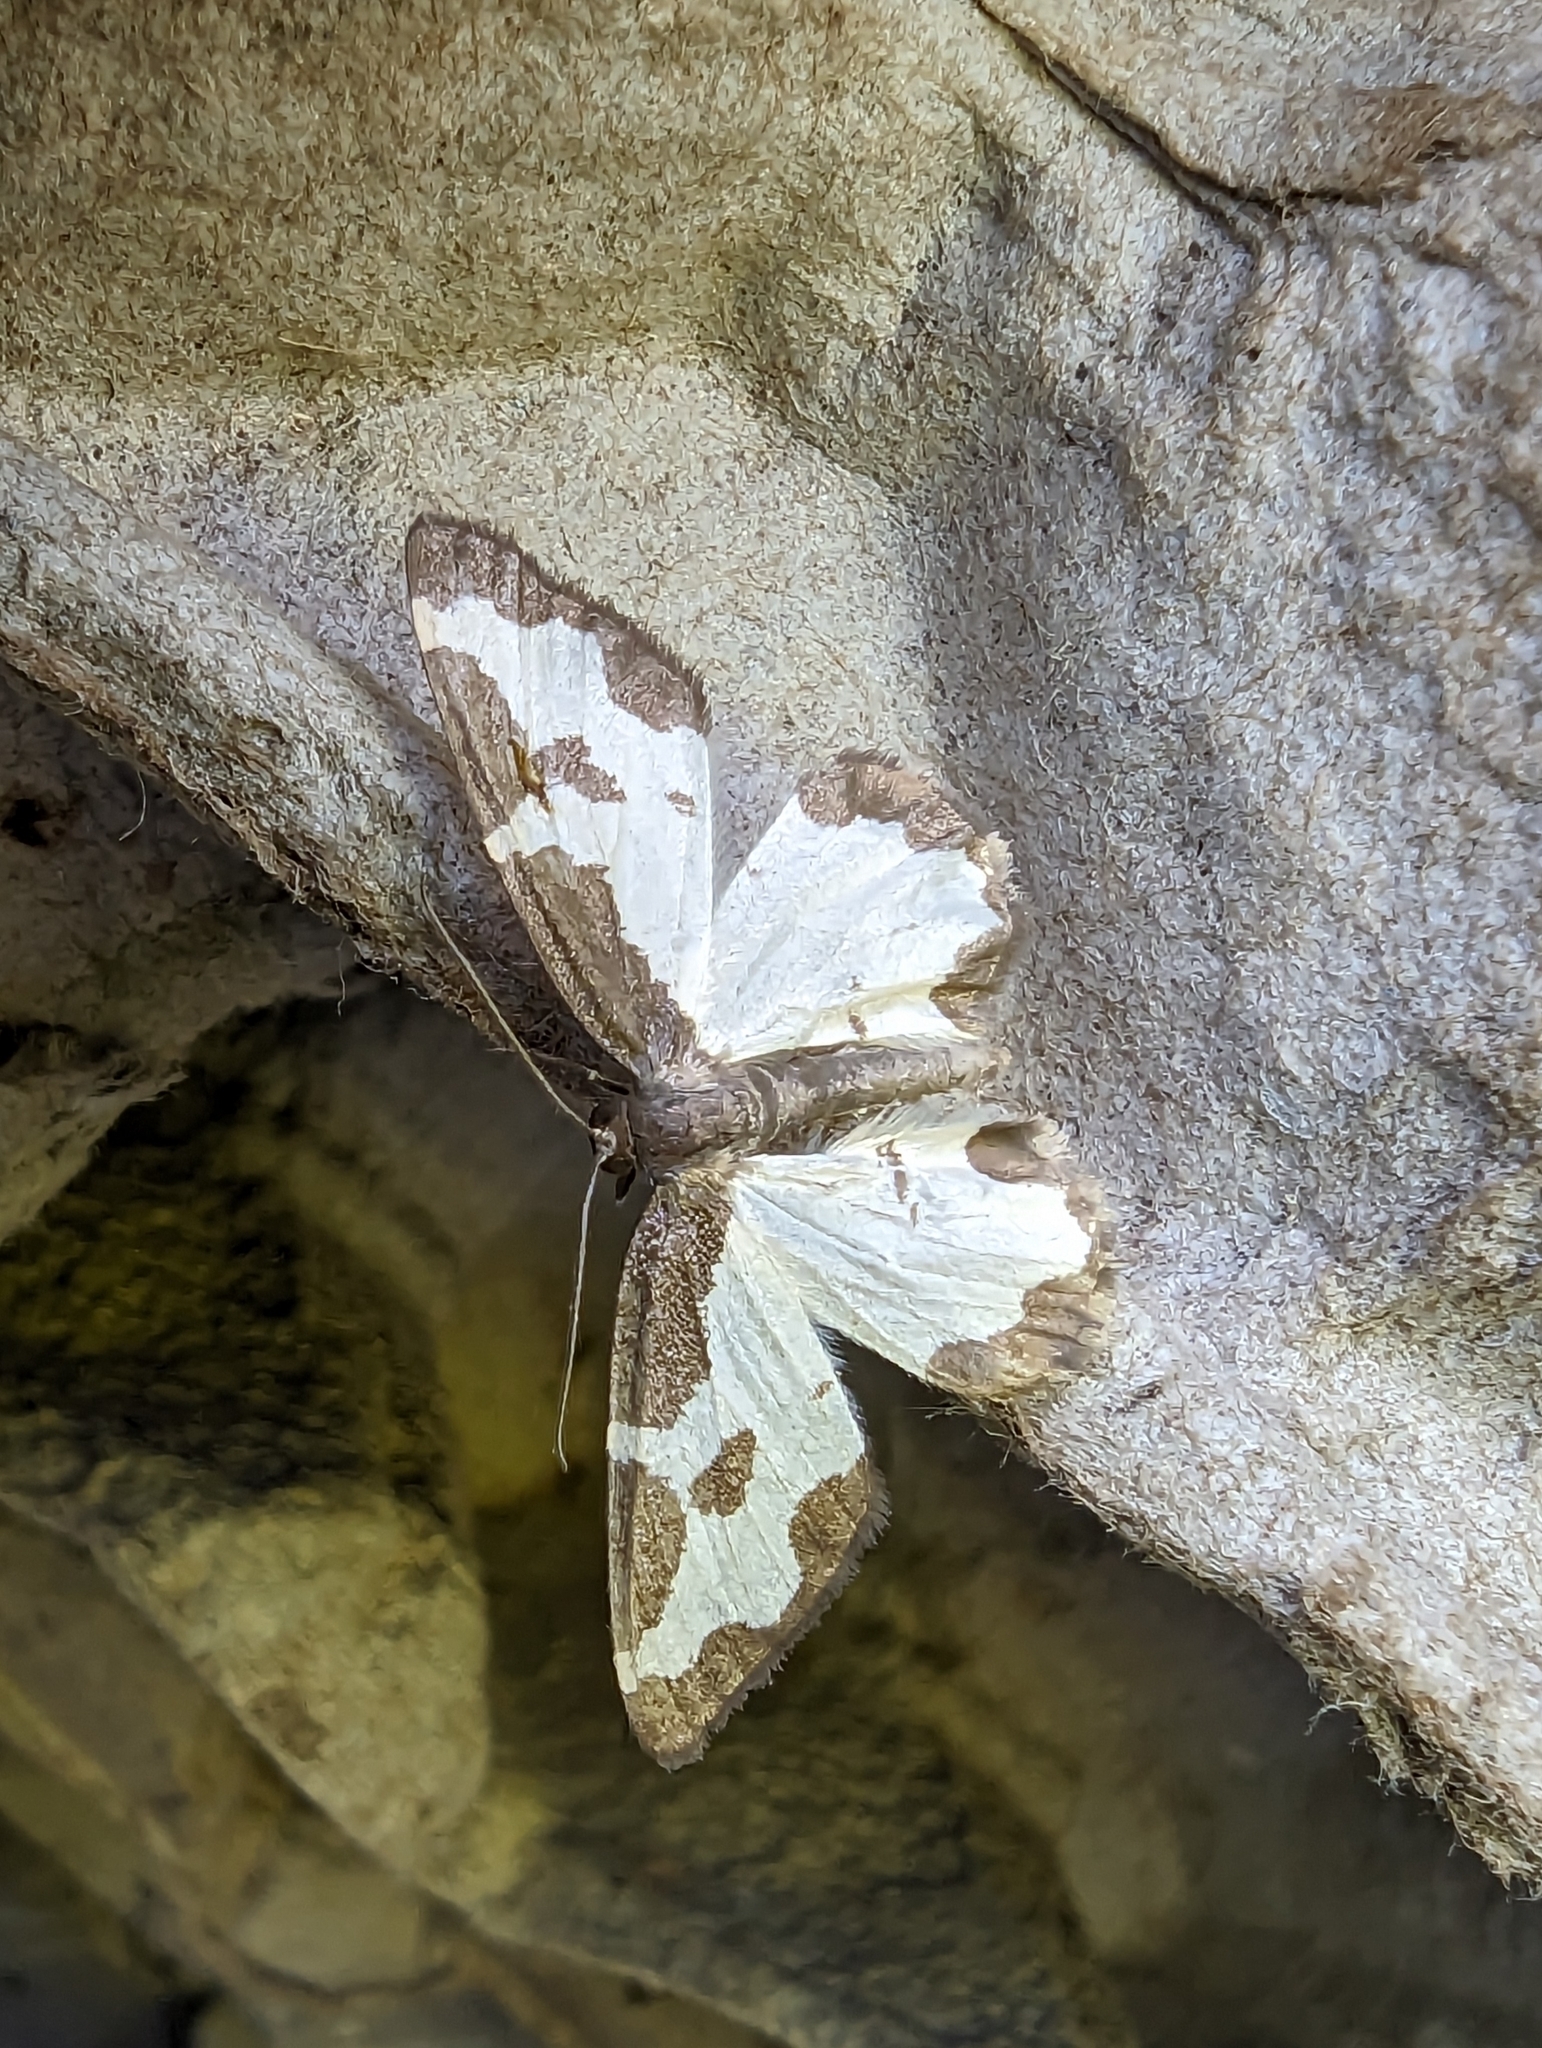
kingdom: Animalia
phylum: Arthropoda
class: Insecta
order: Lepidoptera
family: Geometridae
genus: Lomaspilis
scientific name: Lomaspilis marginata
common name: Clouded border
